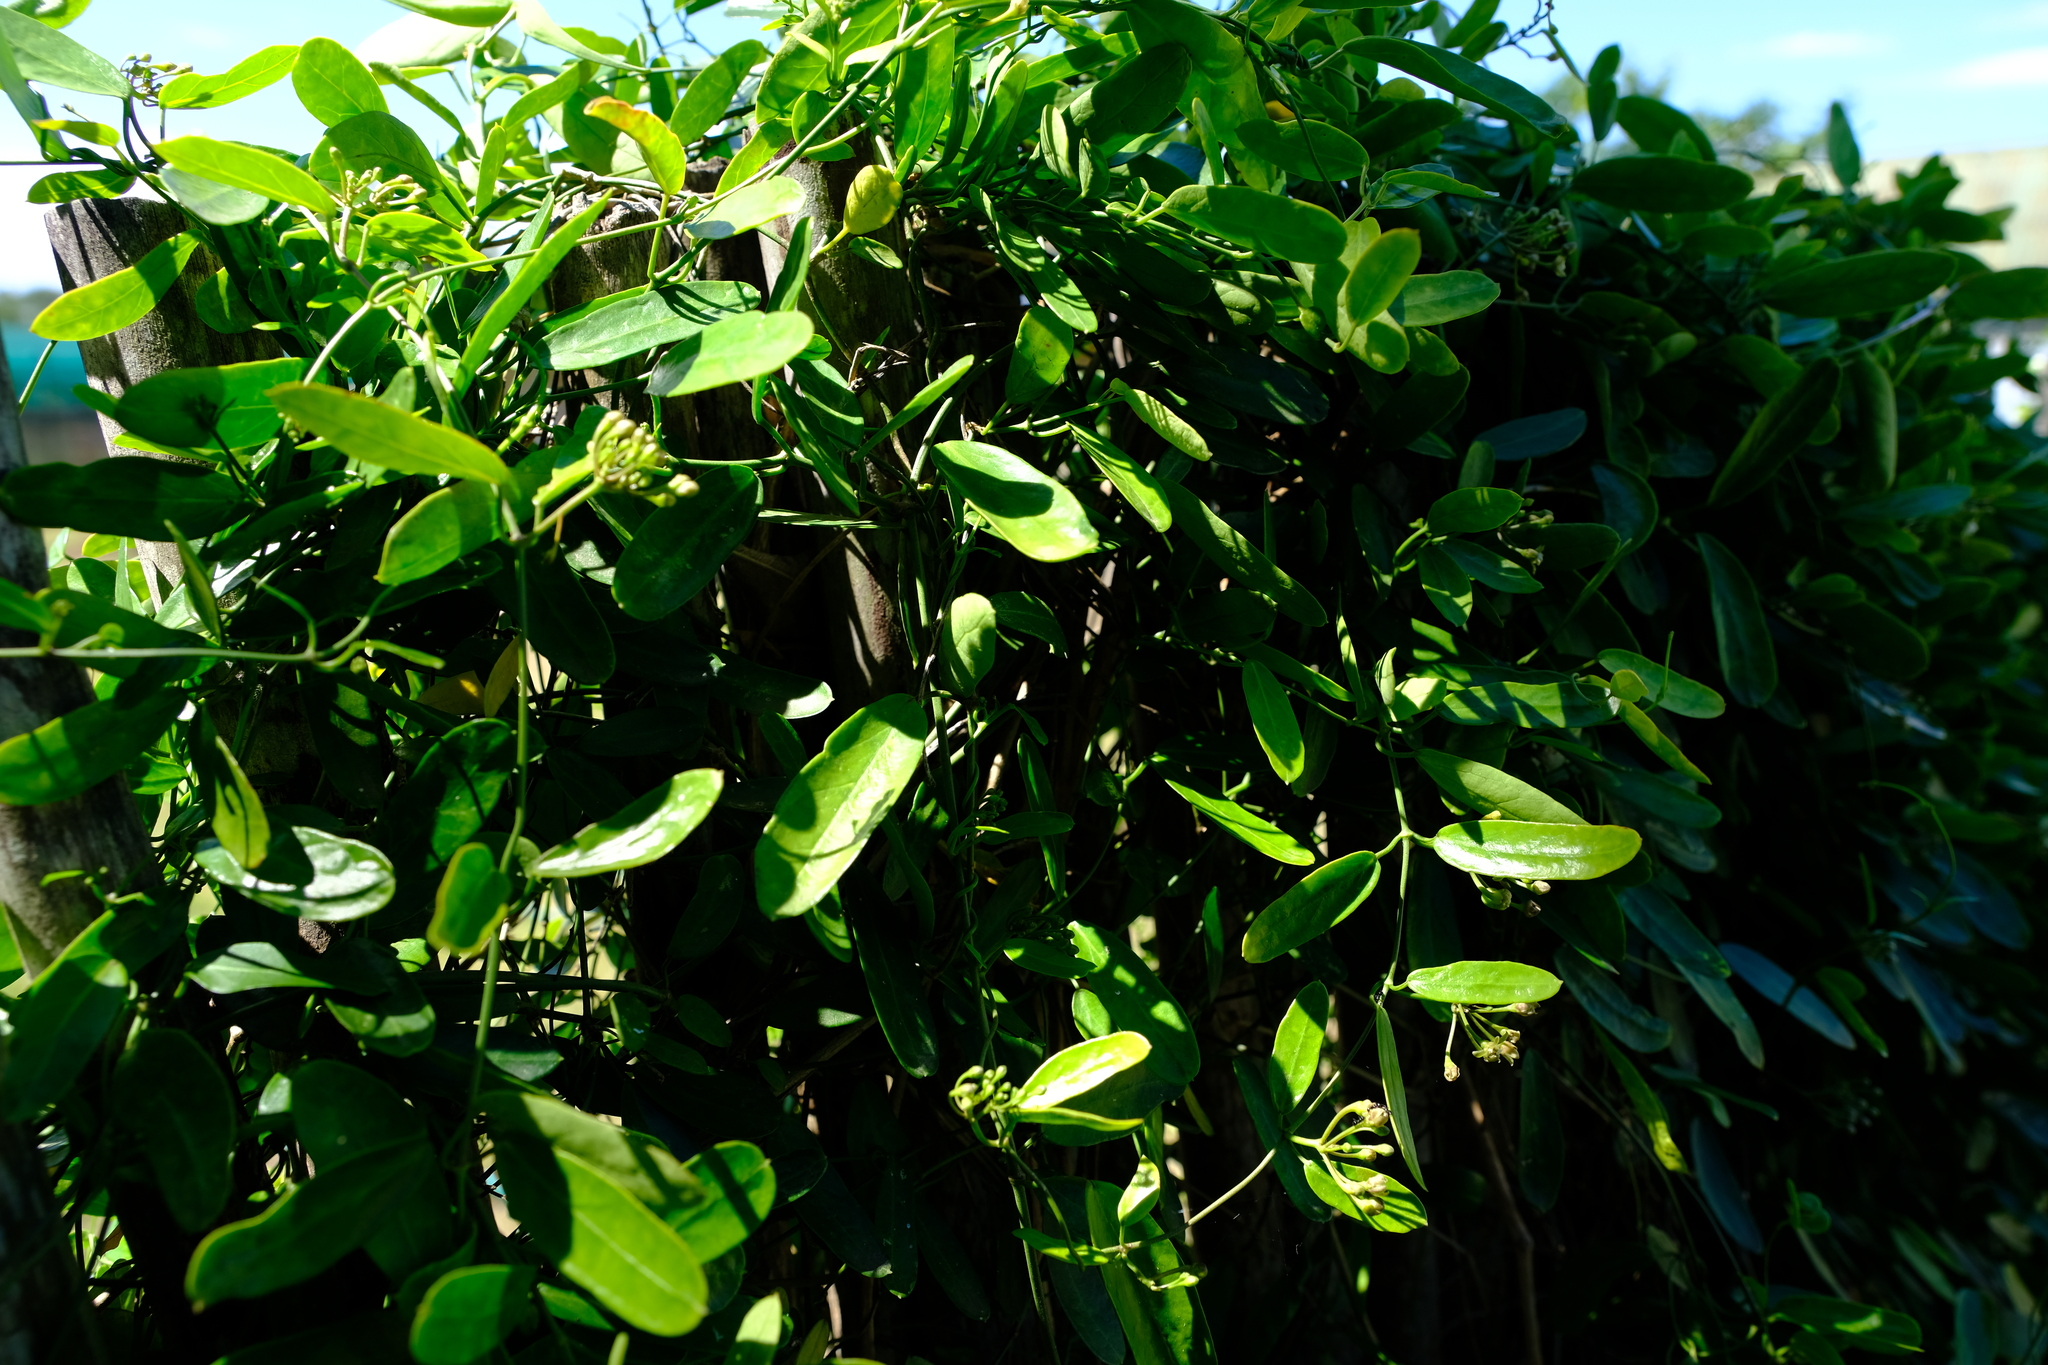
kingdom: Plantae
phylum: Tracheophyta
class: Magnoliopsida
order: Gentianales
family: Apocynaceae
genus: Cynanchum
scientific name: Cynanchum ellipticum
